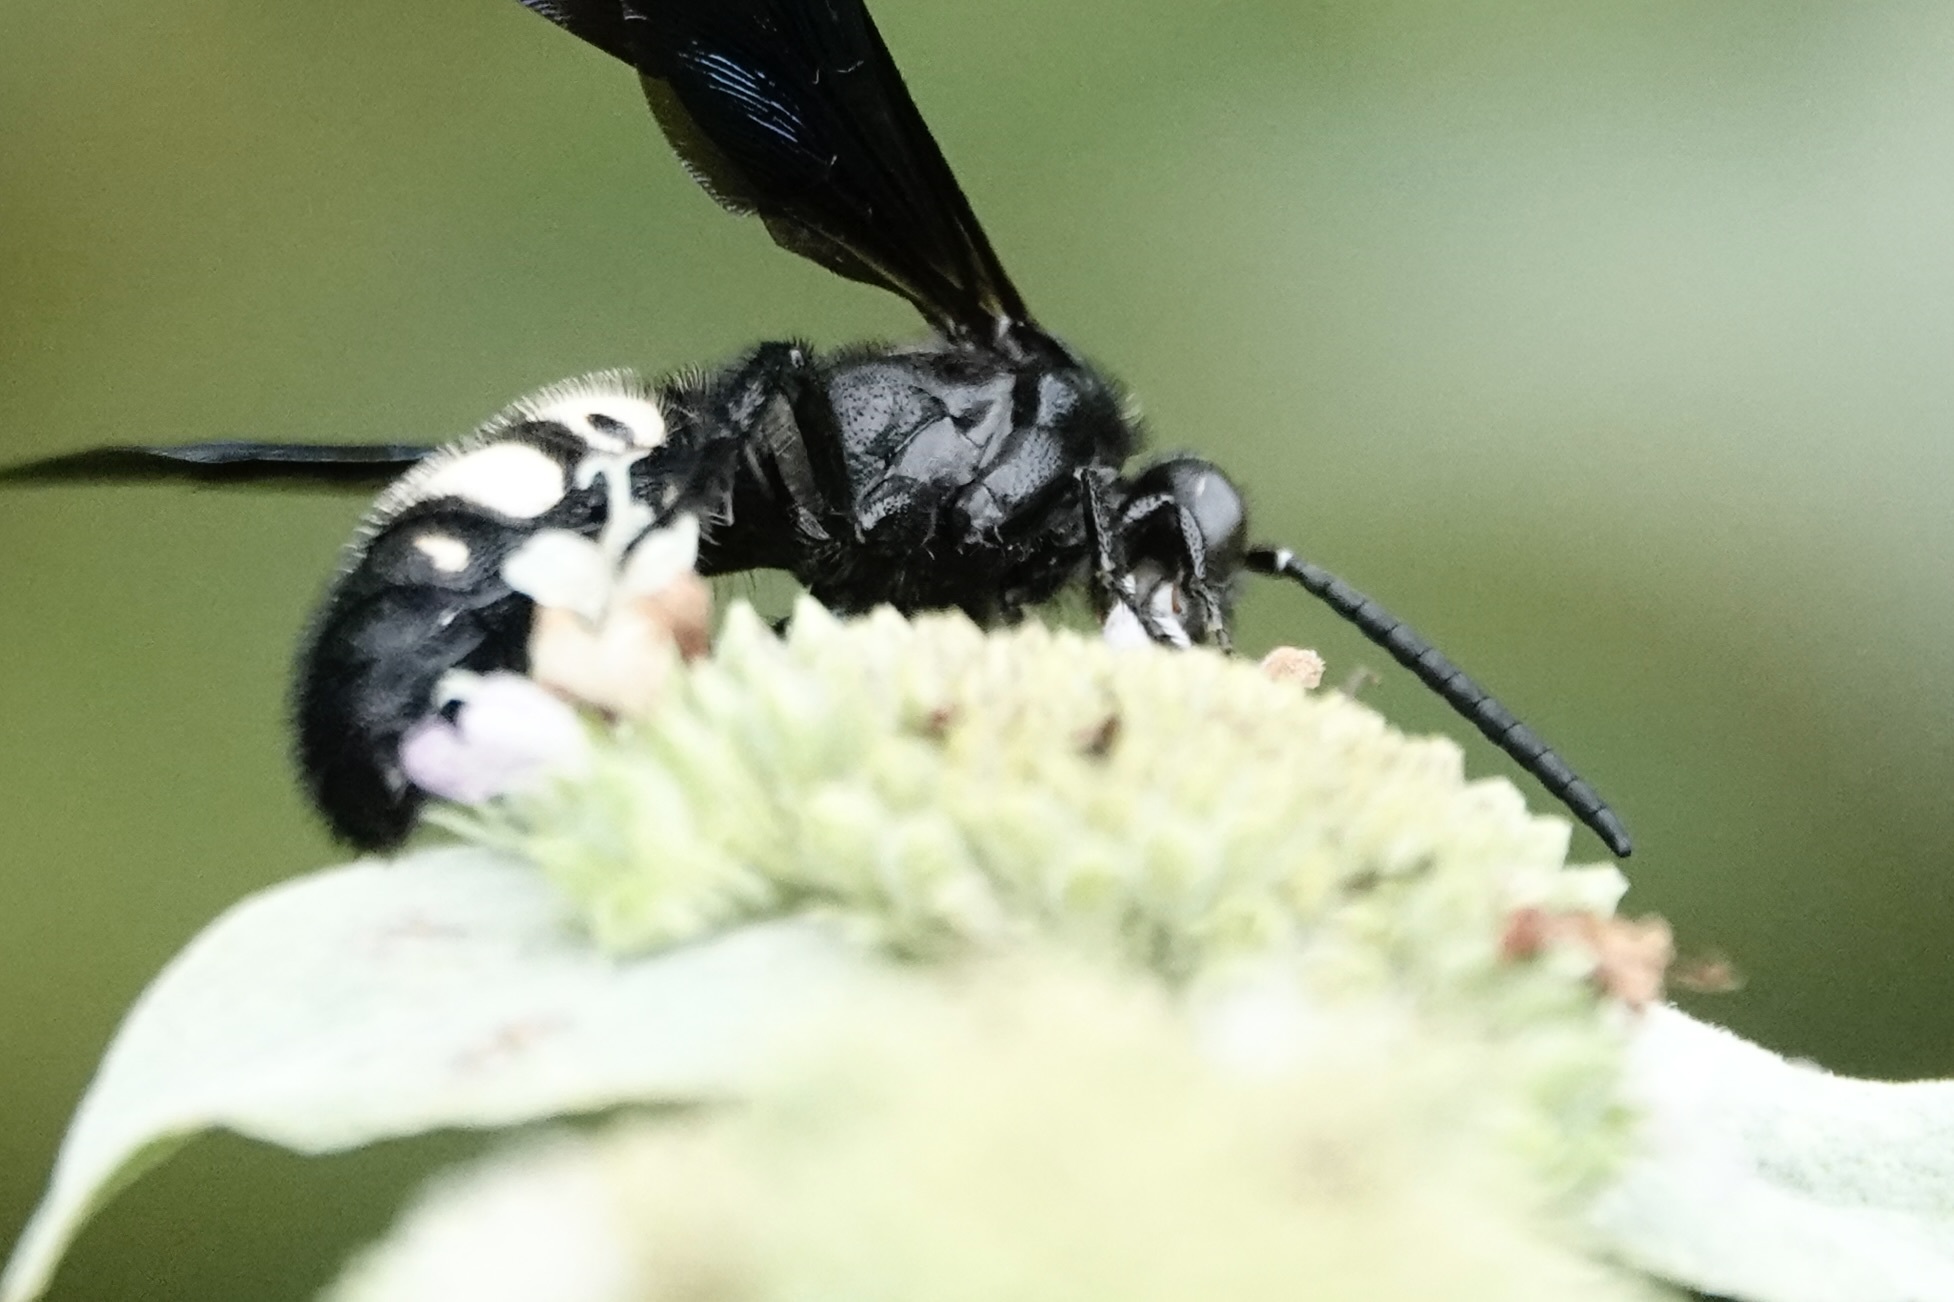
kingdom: Animalia
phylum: Arthropoda
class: Insecta
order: Hymenoptera
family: Scoliidae
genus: Scolia
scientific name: Scolia bicincta
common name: Double-banded scoliid wasp
